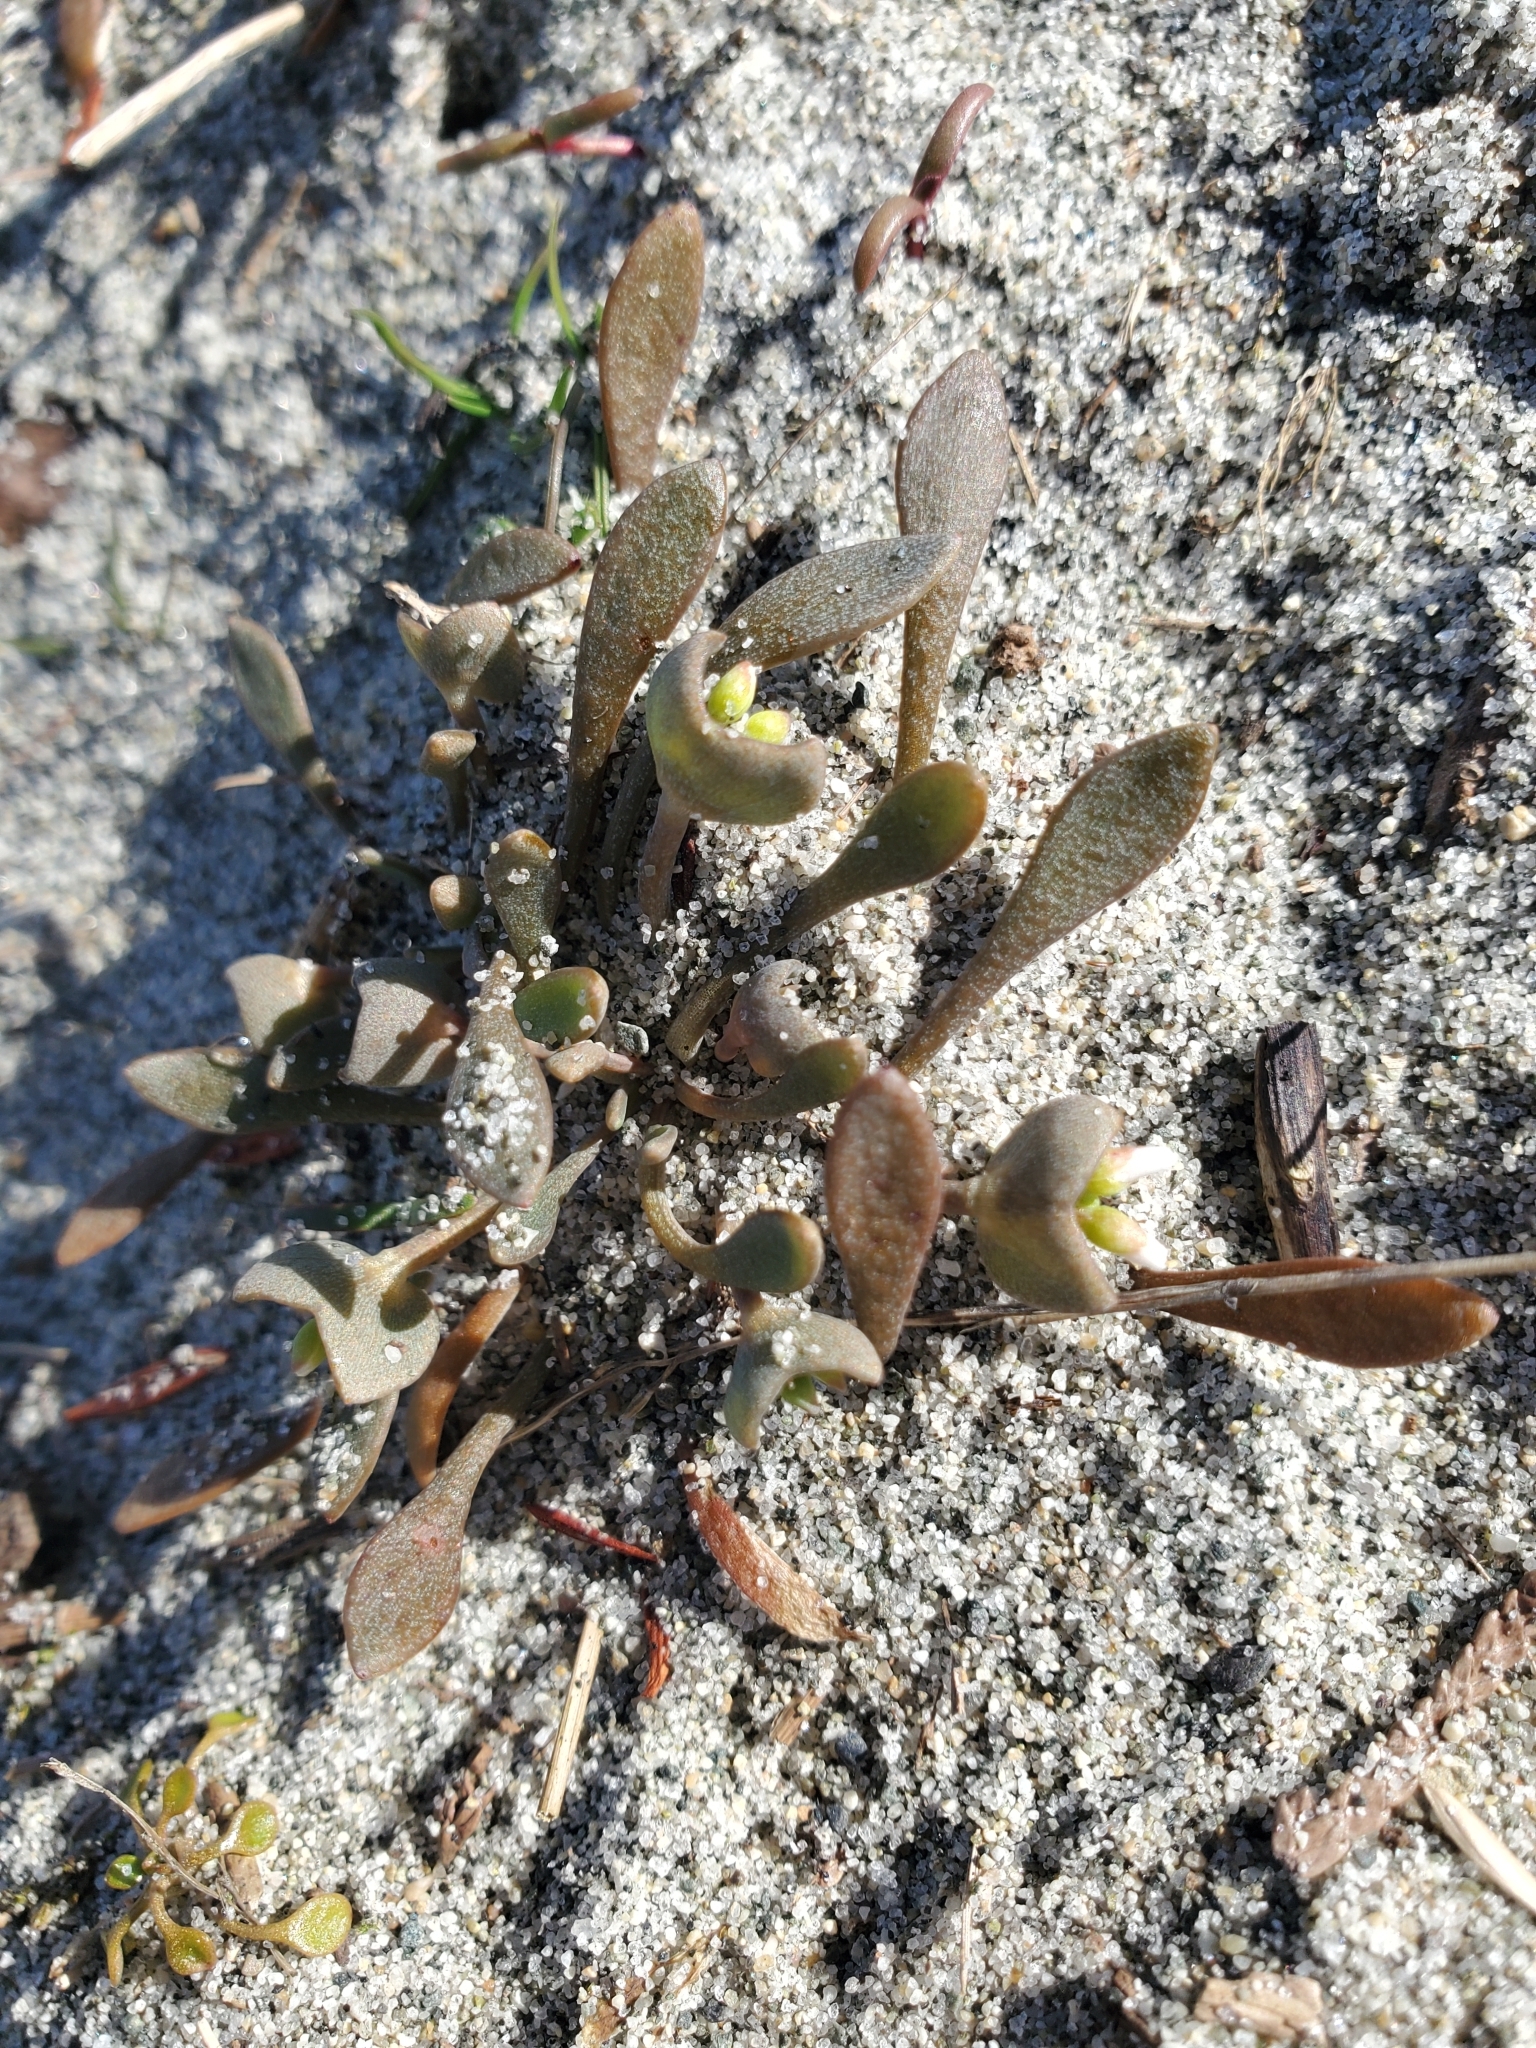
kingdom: Plantae
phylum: Tracheophyta
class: Magnoliopsida
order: Caryophyllales
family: Montiaceae
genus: Claytonia
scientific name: Claytonia exigua
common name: Pale spring beauty
